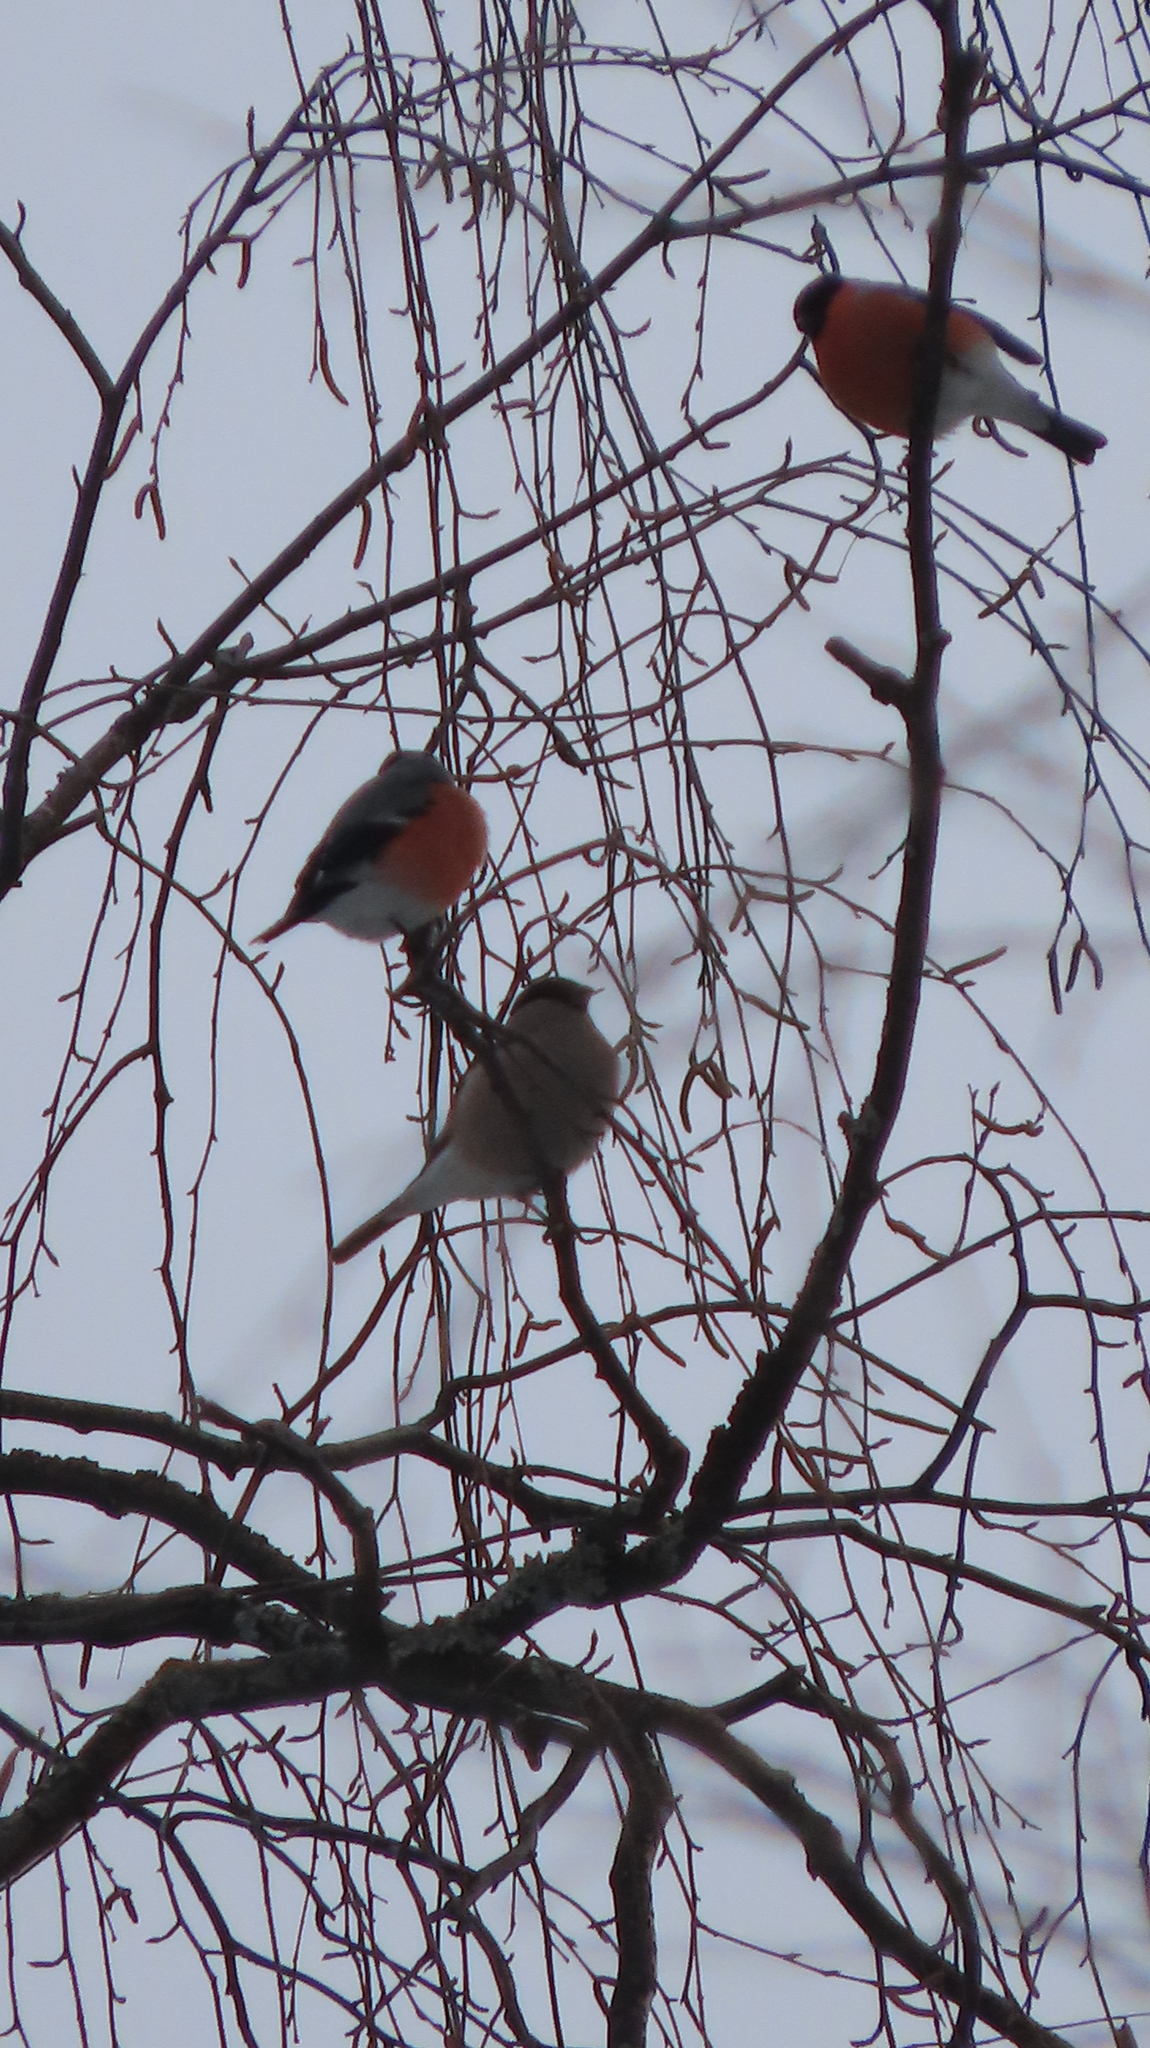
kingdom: Animalia
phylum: Chordata
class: Aves
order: Passeriformes
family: Fringillidae
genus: Pyrrhula
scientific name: Pyrrhula pyrrhula
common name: Eurasian bullfinch
